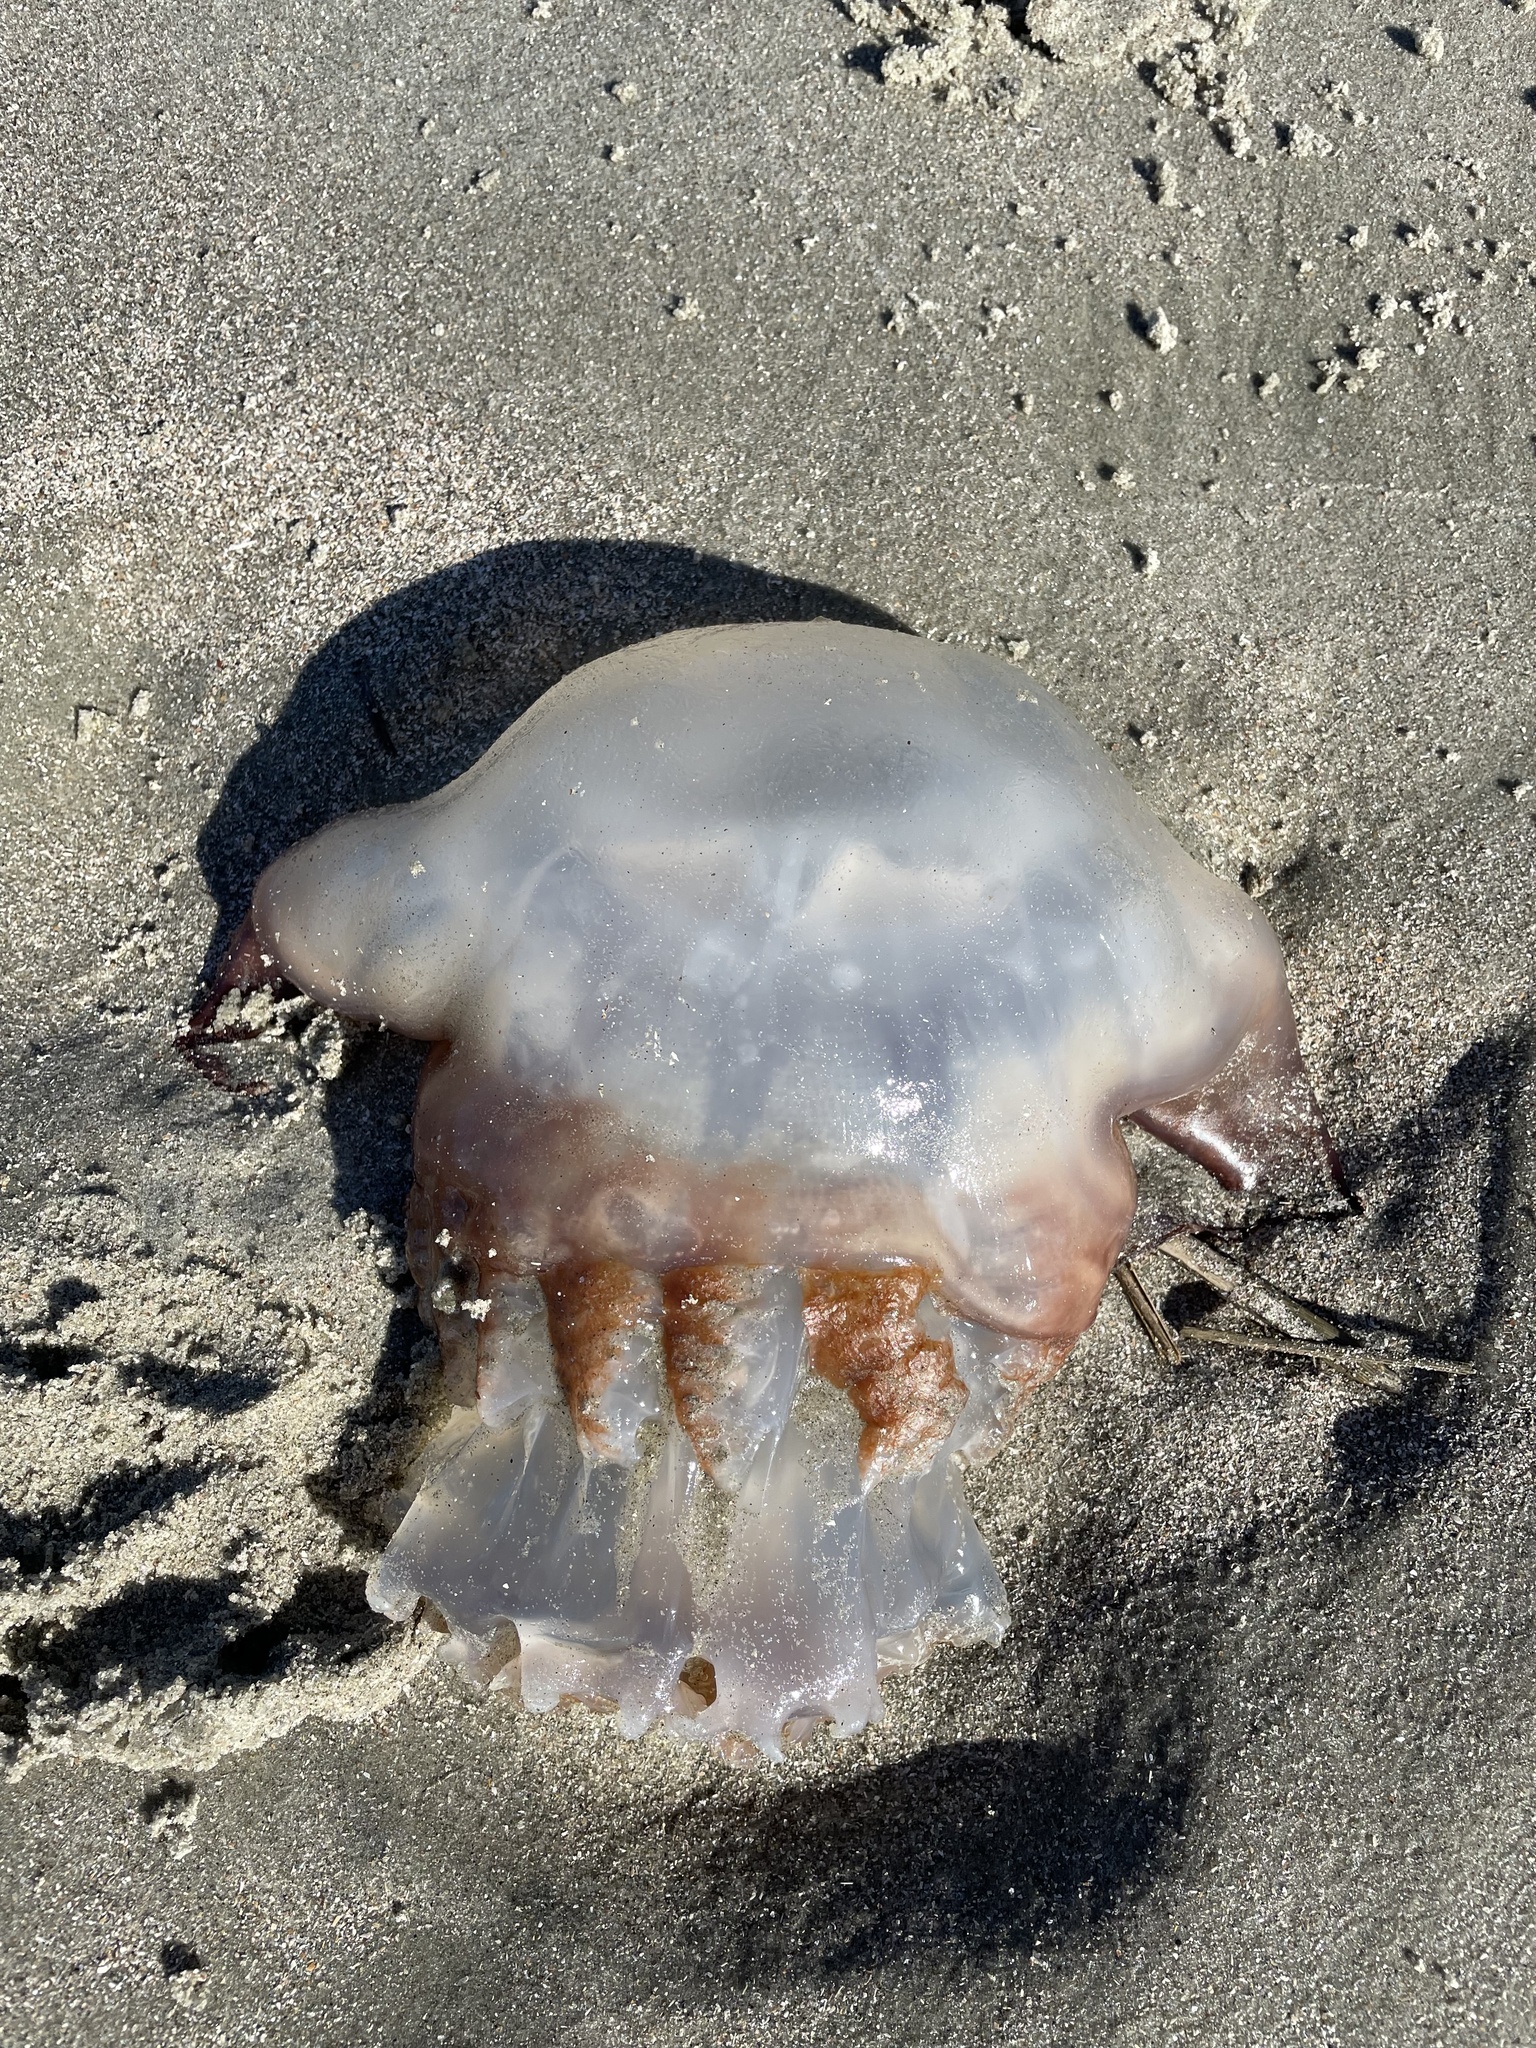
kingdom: Animalia
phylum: Cnidaria
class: Scyphozoa
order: Rhizostomeae
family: Stomolophidae
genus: Stomolophus
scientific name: Stomolophus meleagris
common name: Cabbagehead
